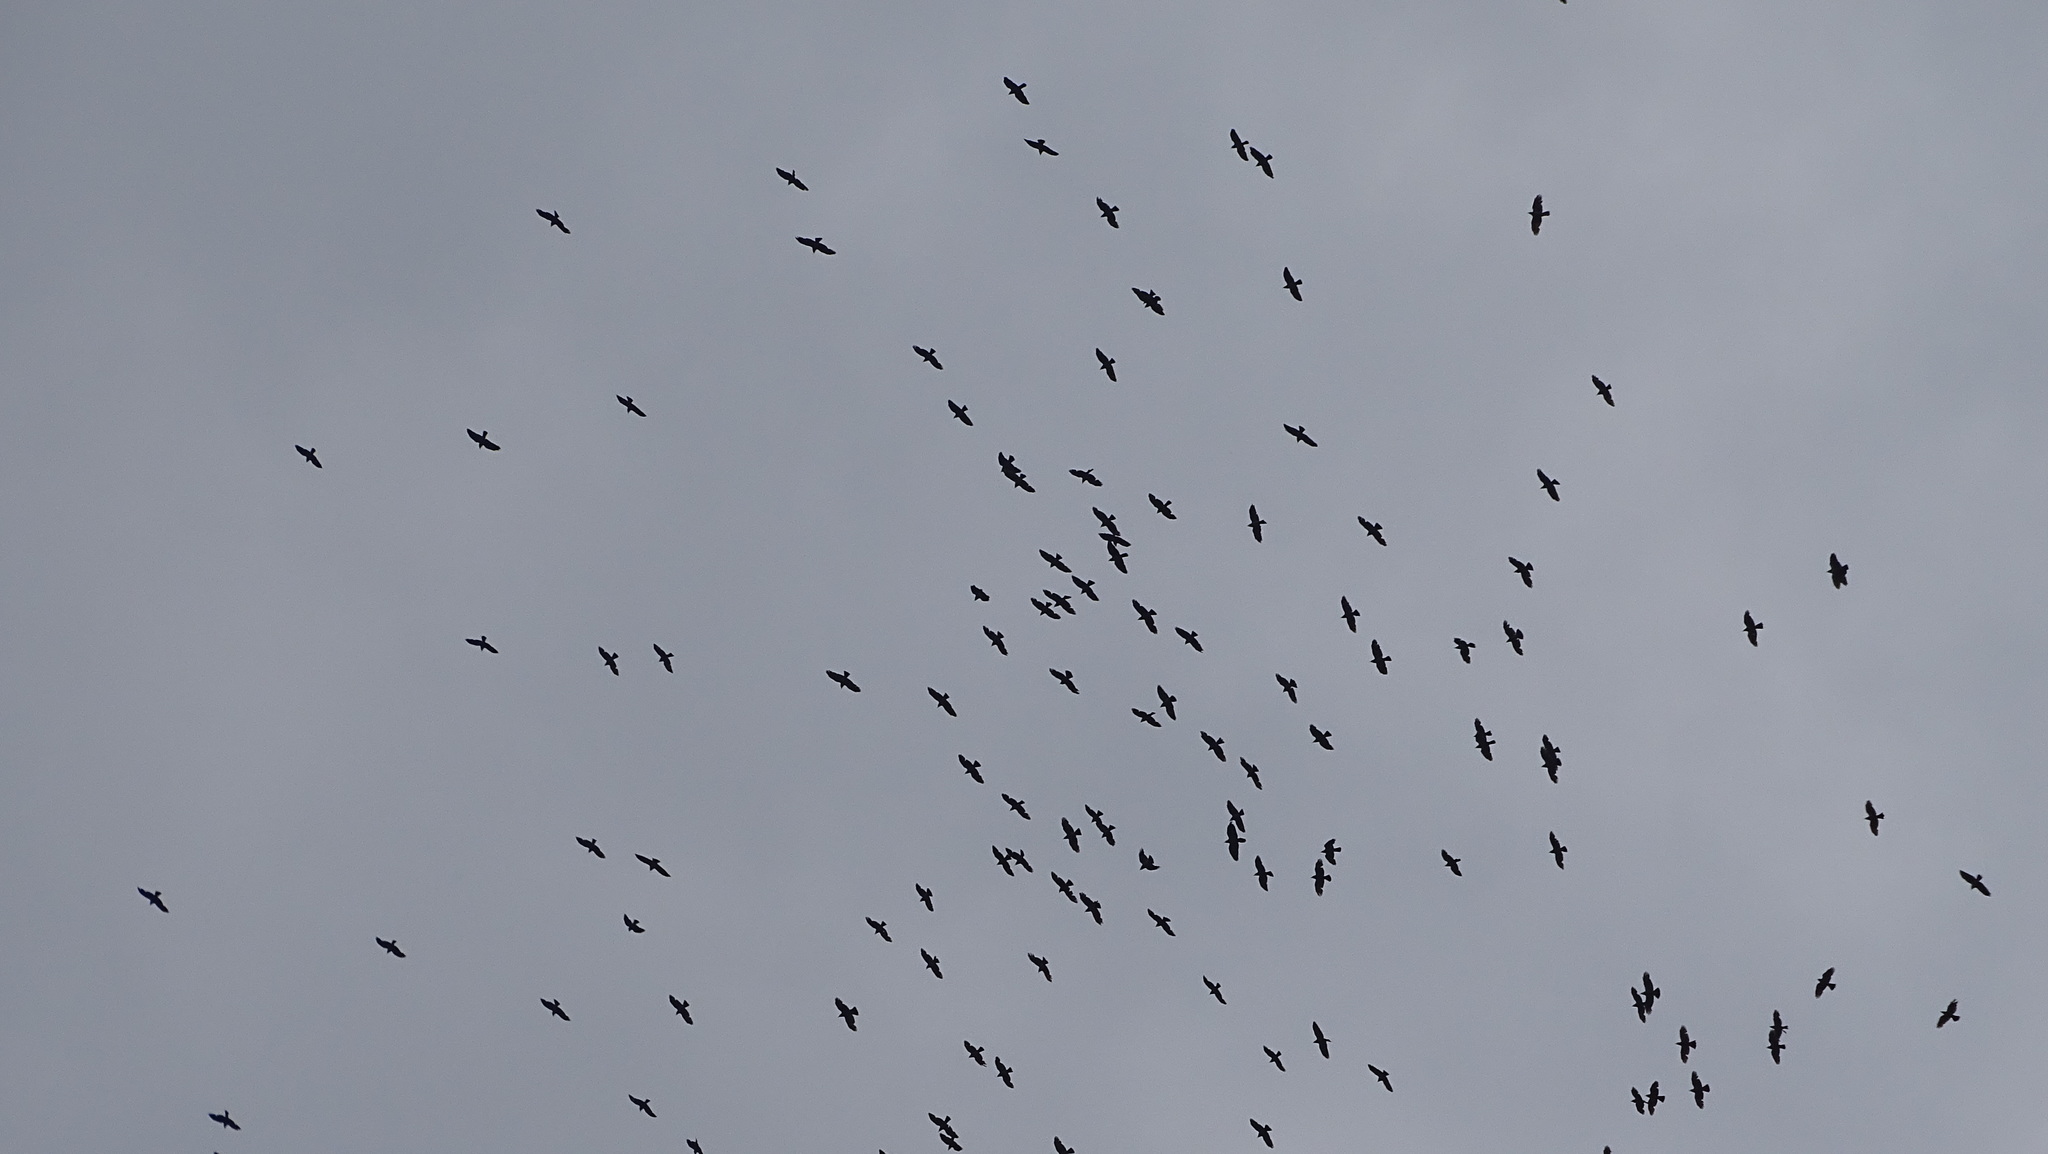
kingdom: Animalia
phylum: Chordata
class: Aves
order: Passeriformes
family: Corvidae
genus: Coloeus
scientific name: Coloeus monedula
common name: Western jackdaw
